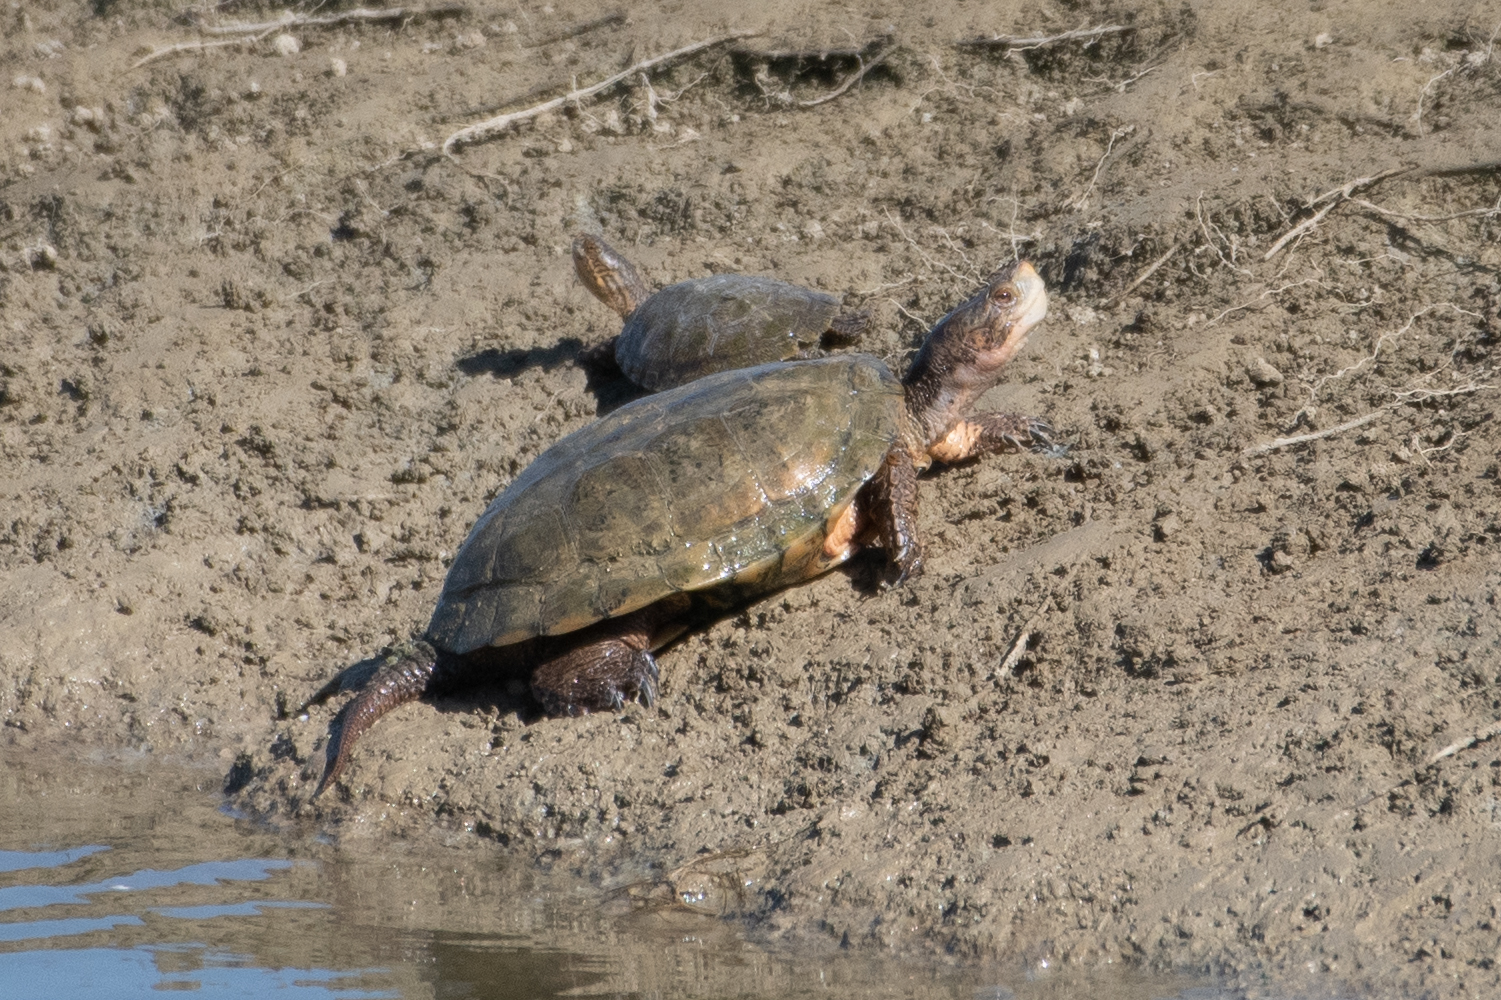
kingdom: Animalia
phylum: Chordata
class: Testudines
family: Emydidae
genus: Actinemys
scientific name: Actinemys marmorata
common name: Western pond turtle
